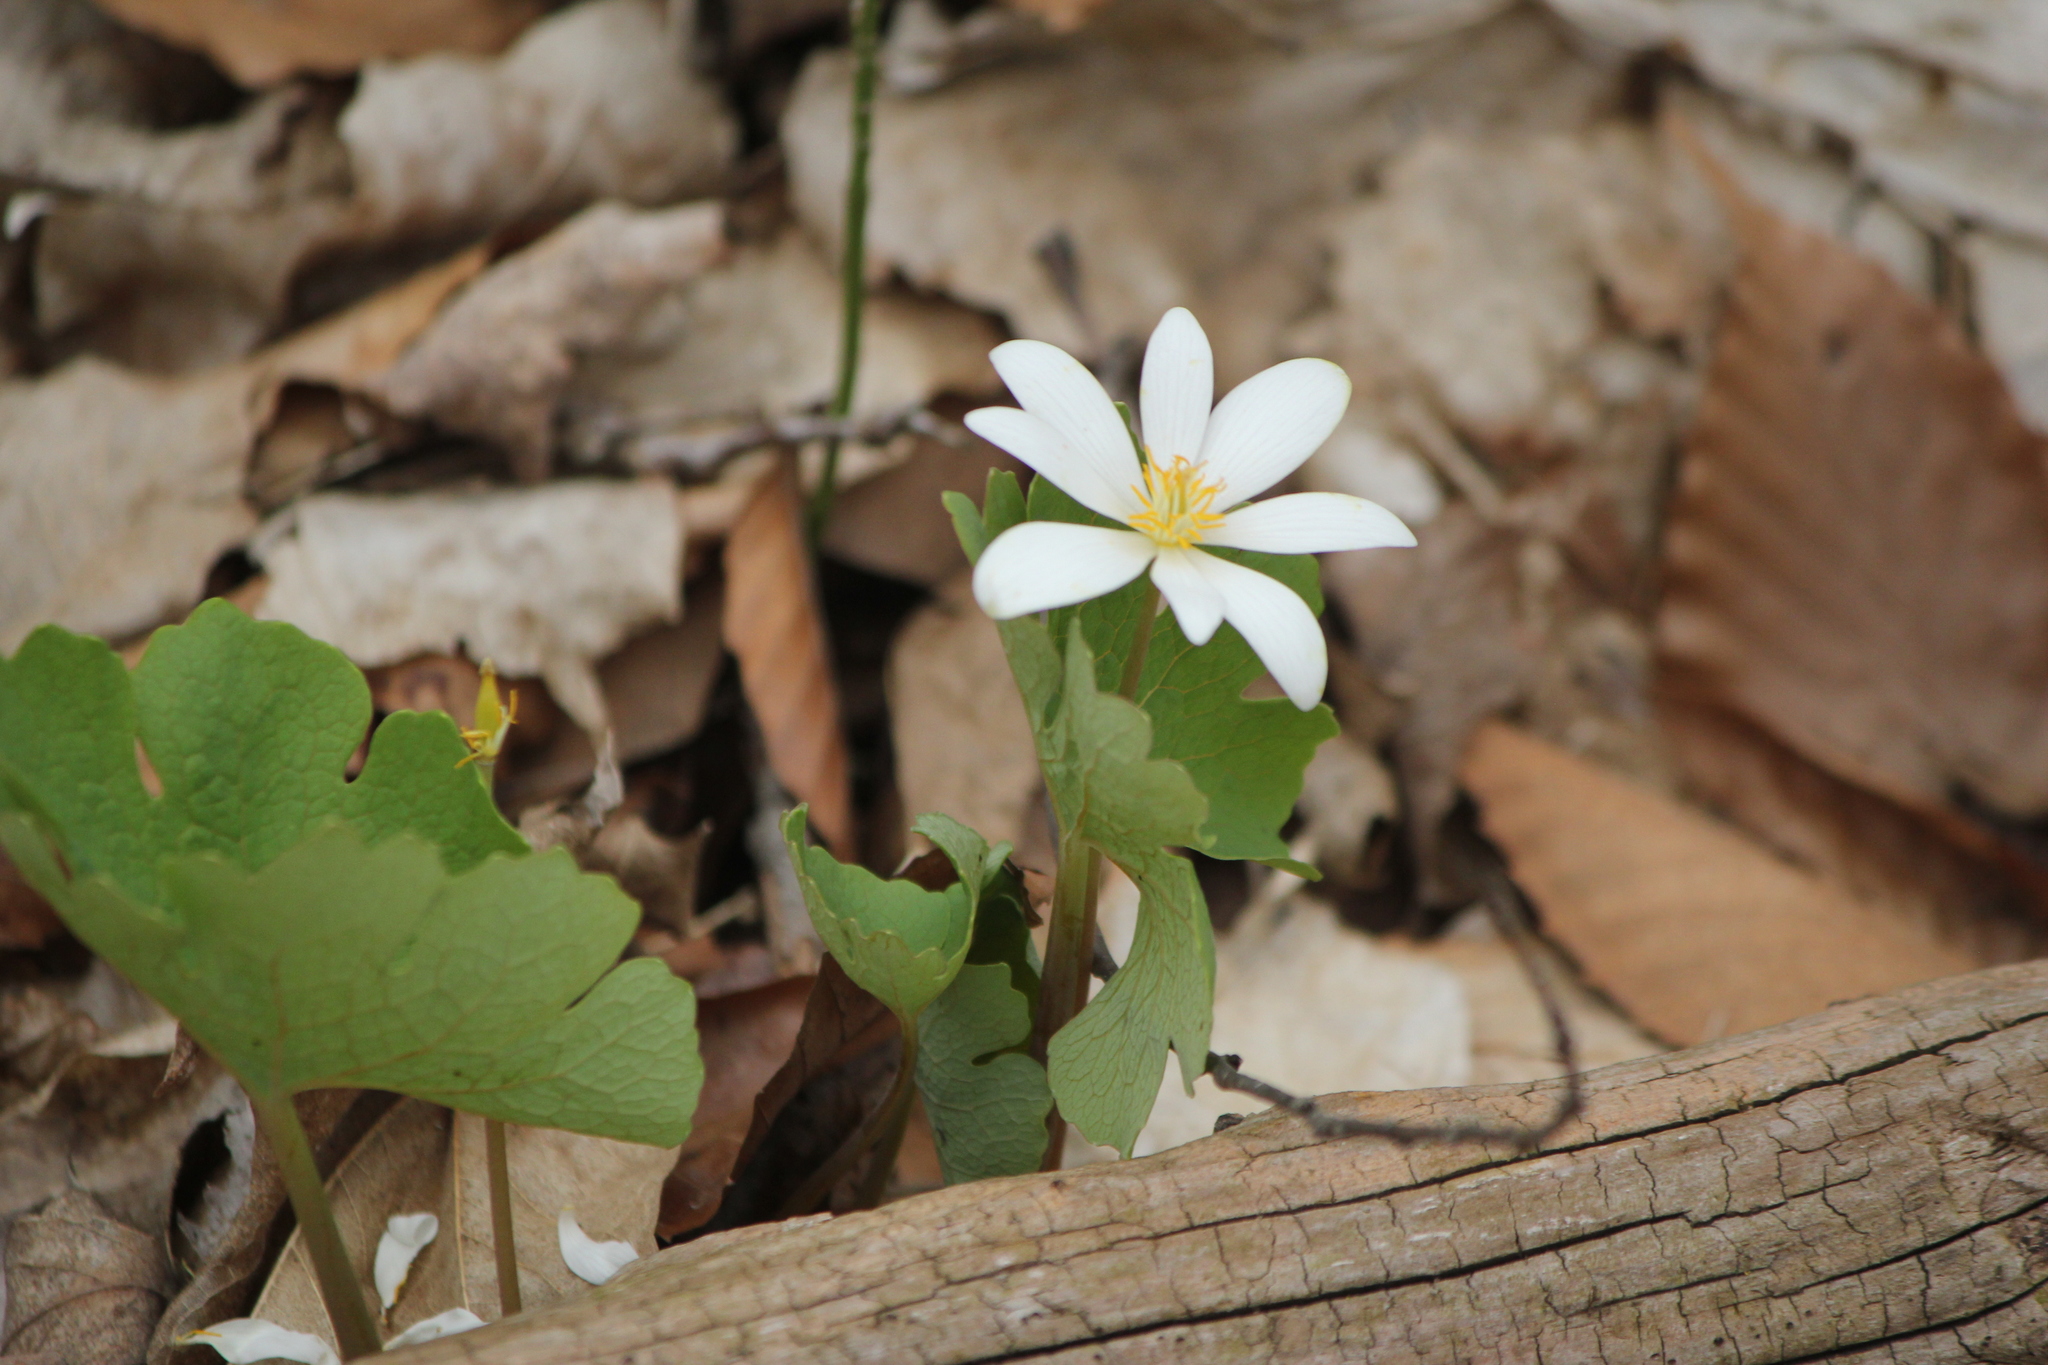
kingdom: Plantae
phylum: Tracheophyta
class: Magnoliopsida
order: Ranunculales
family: Papaveraceae
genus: Sanguinaria
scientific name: Sanguinaria canadensis
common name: Bloodroot
